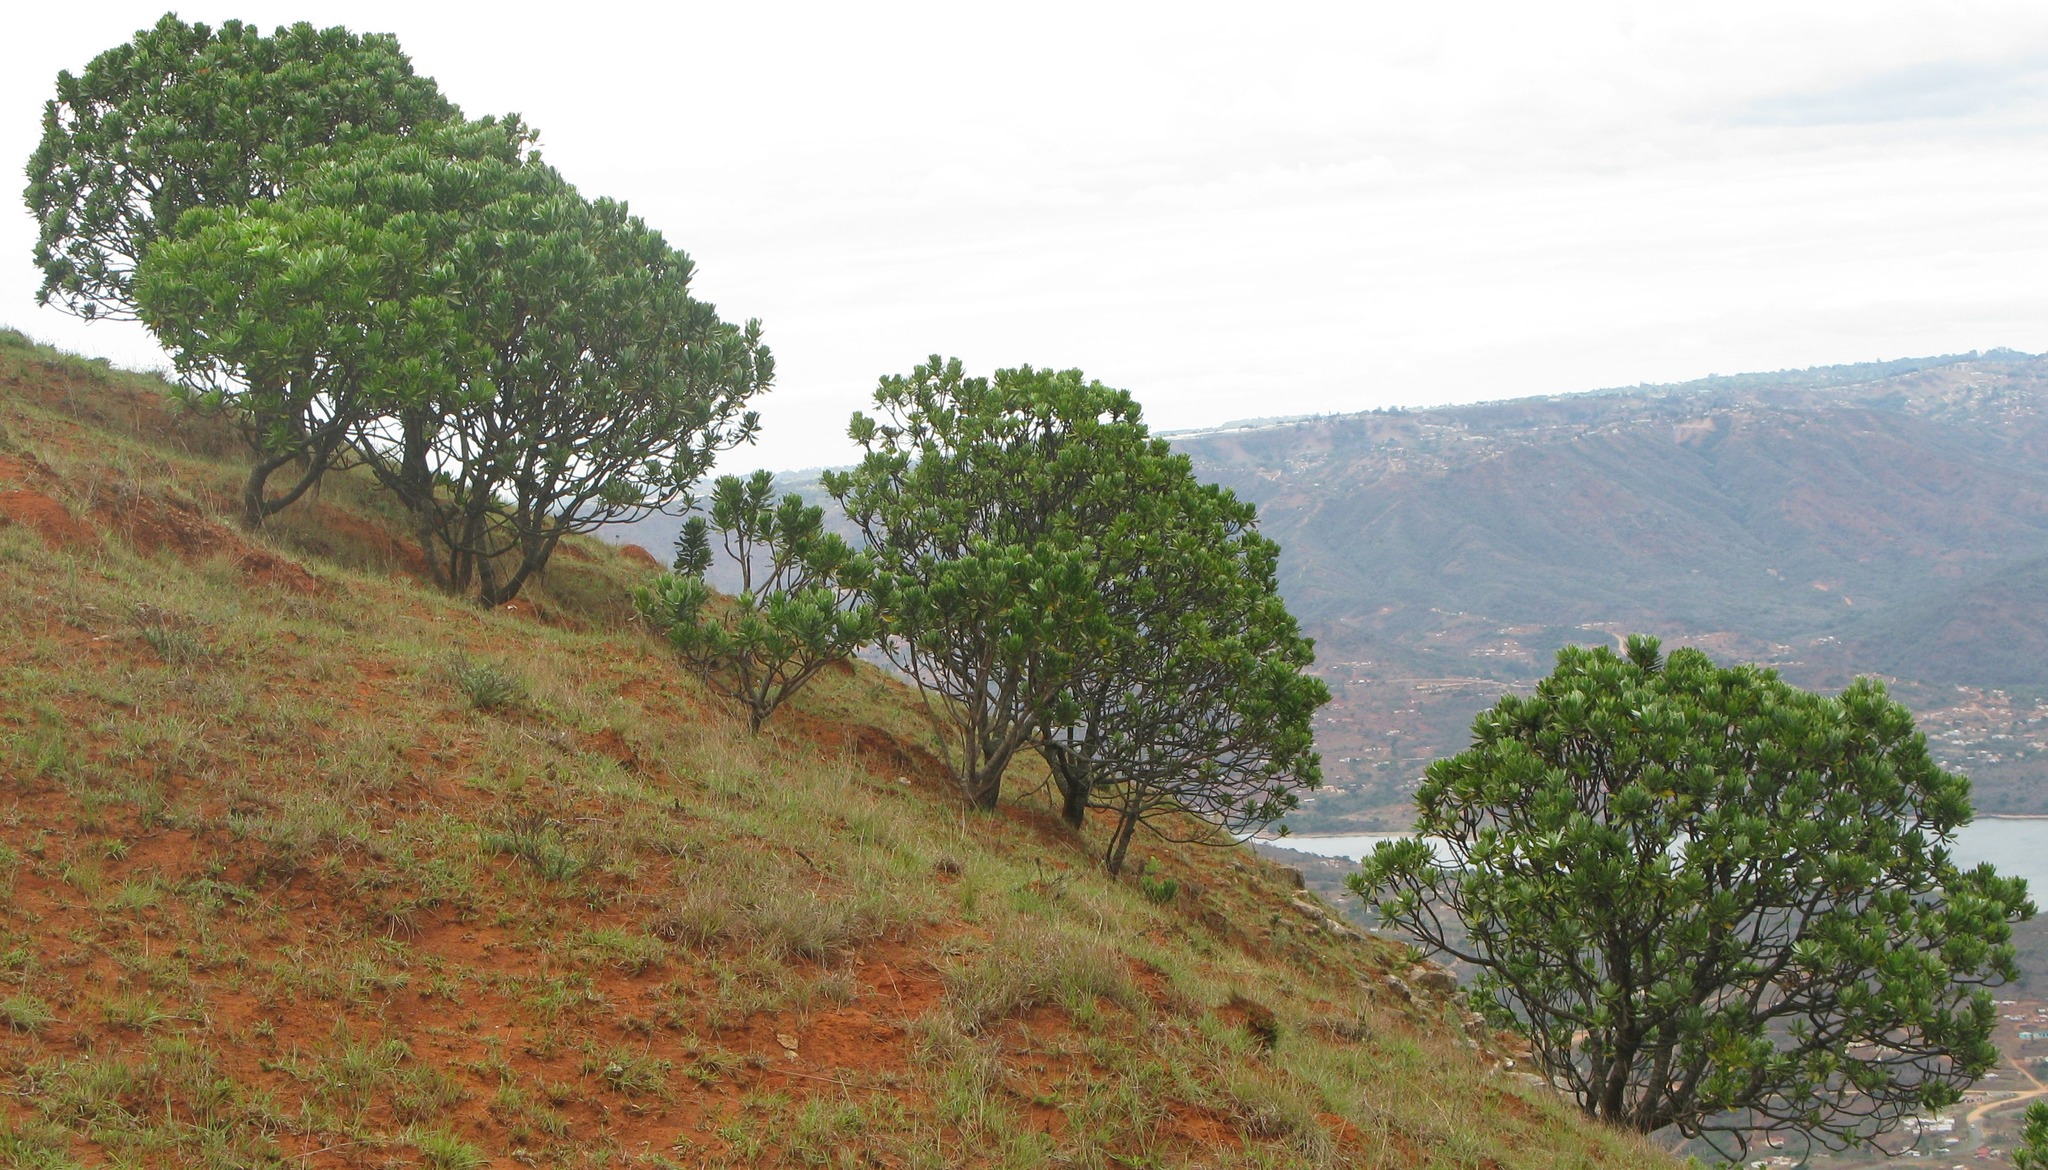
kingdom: Plantae
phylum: Tracheophyta
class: Magnoliopsida
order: Proteales
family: Proteaceae
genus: Protea
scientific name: Protea roupelliae
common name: Silver sugarbush
